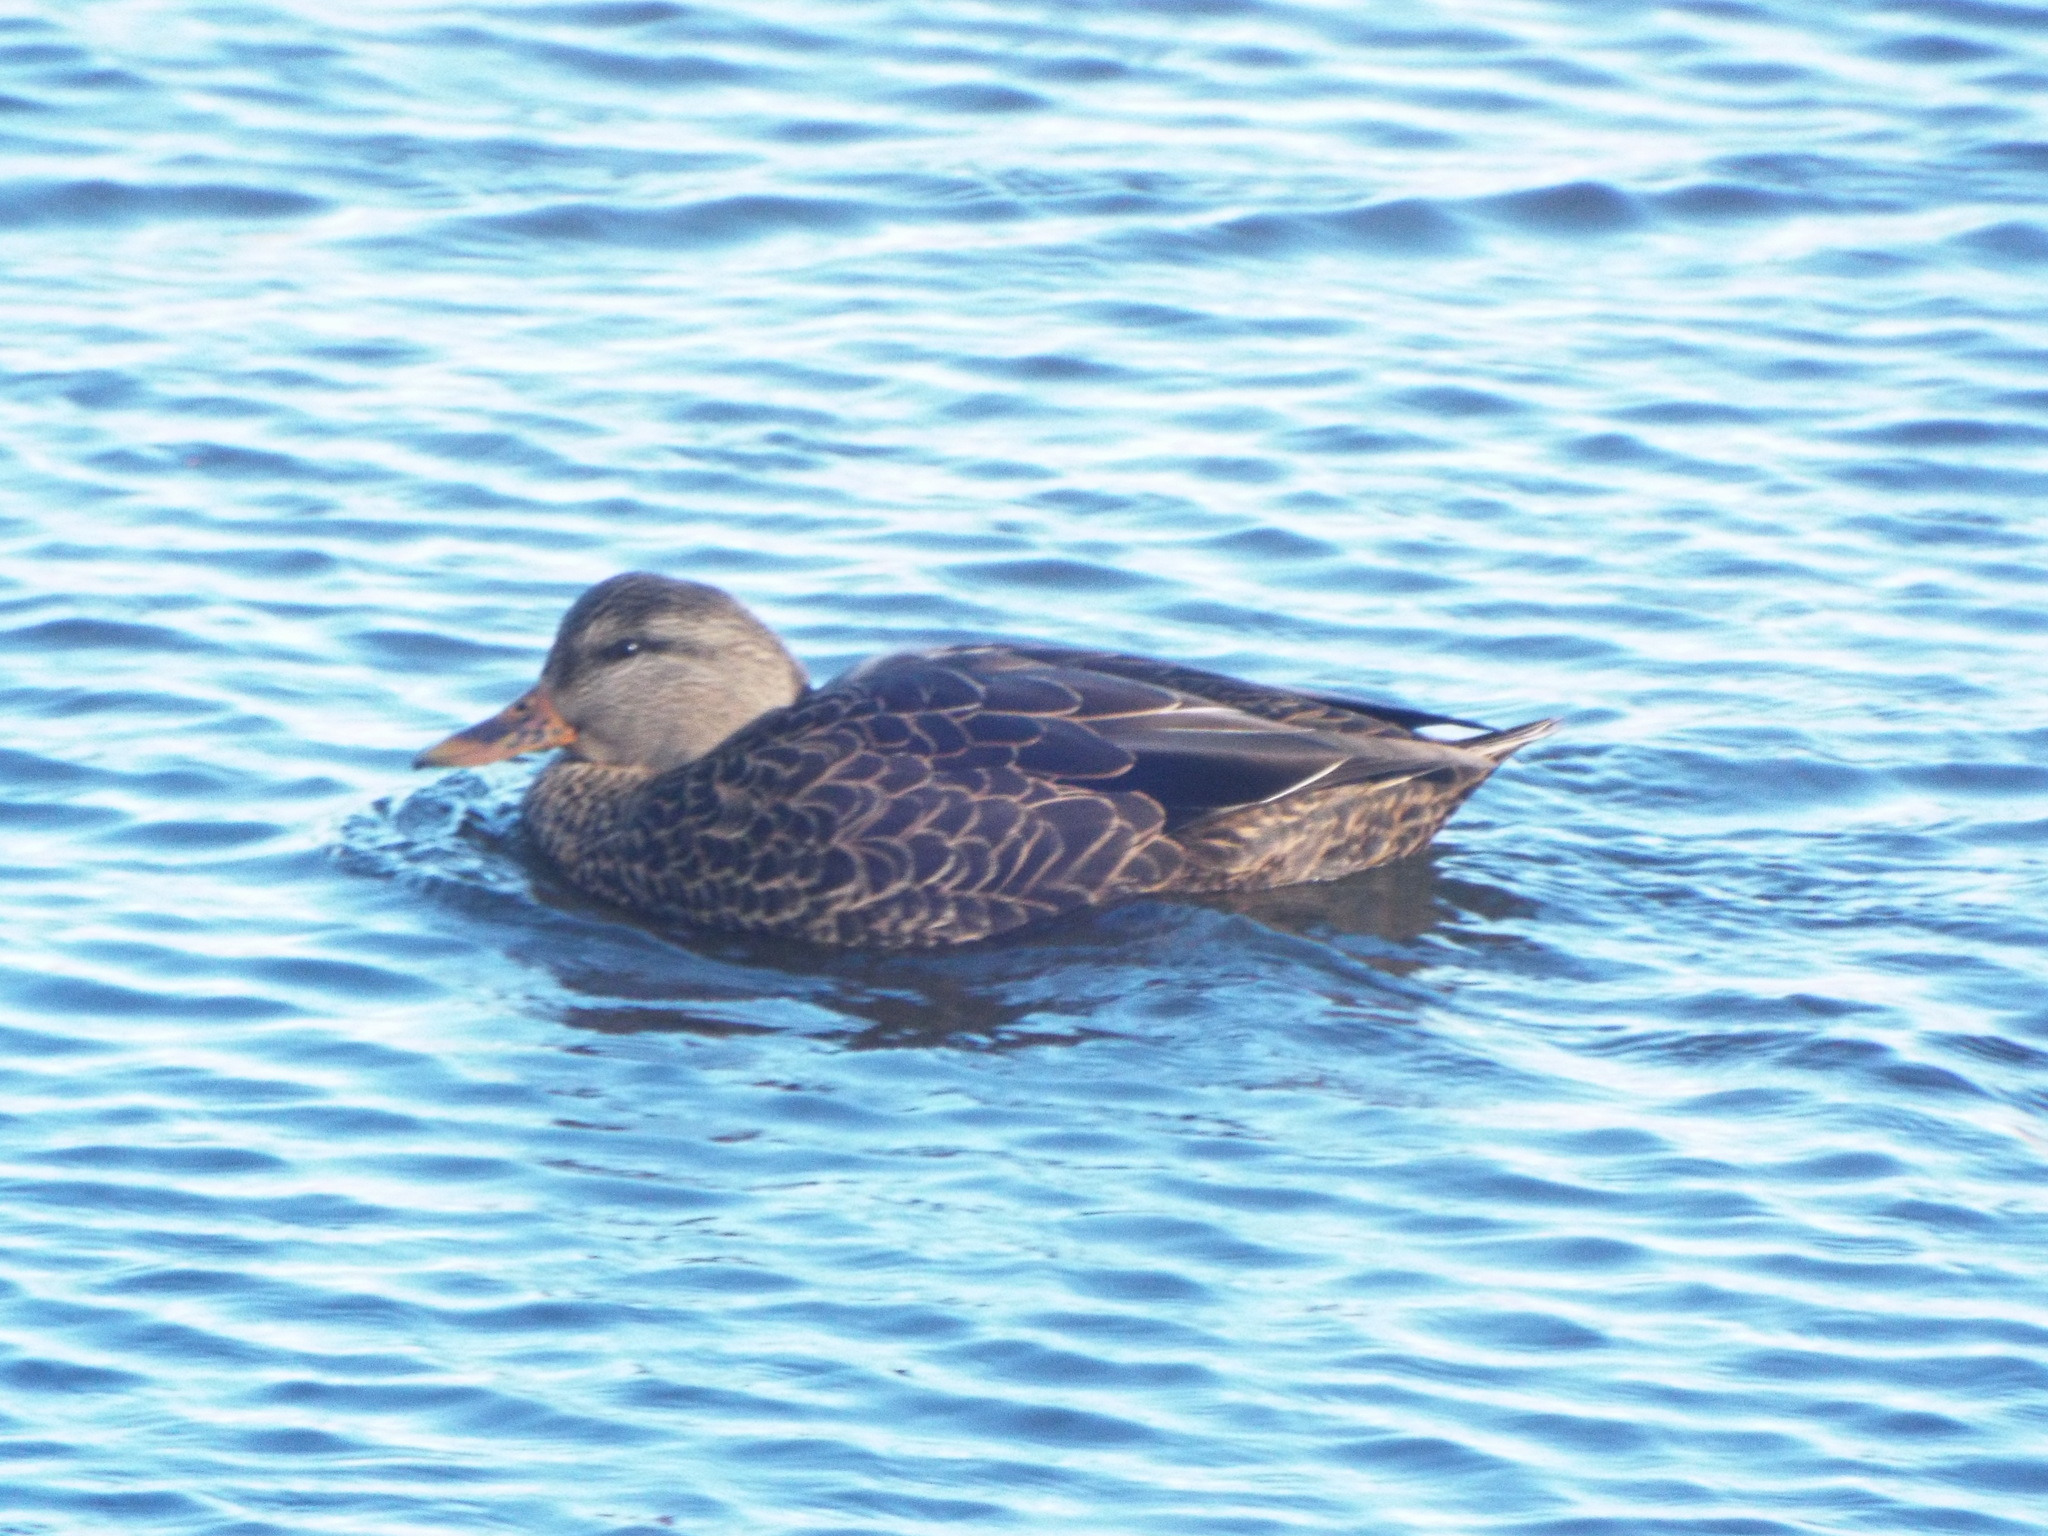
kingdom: Animalia
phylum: Chordata
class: Aves
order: Anseriformes
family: Anatidae
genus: Anas
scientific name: Anas
